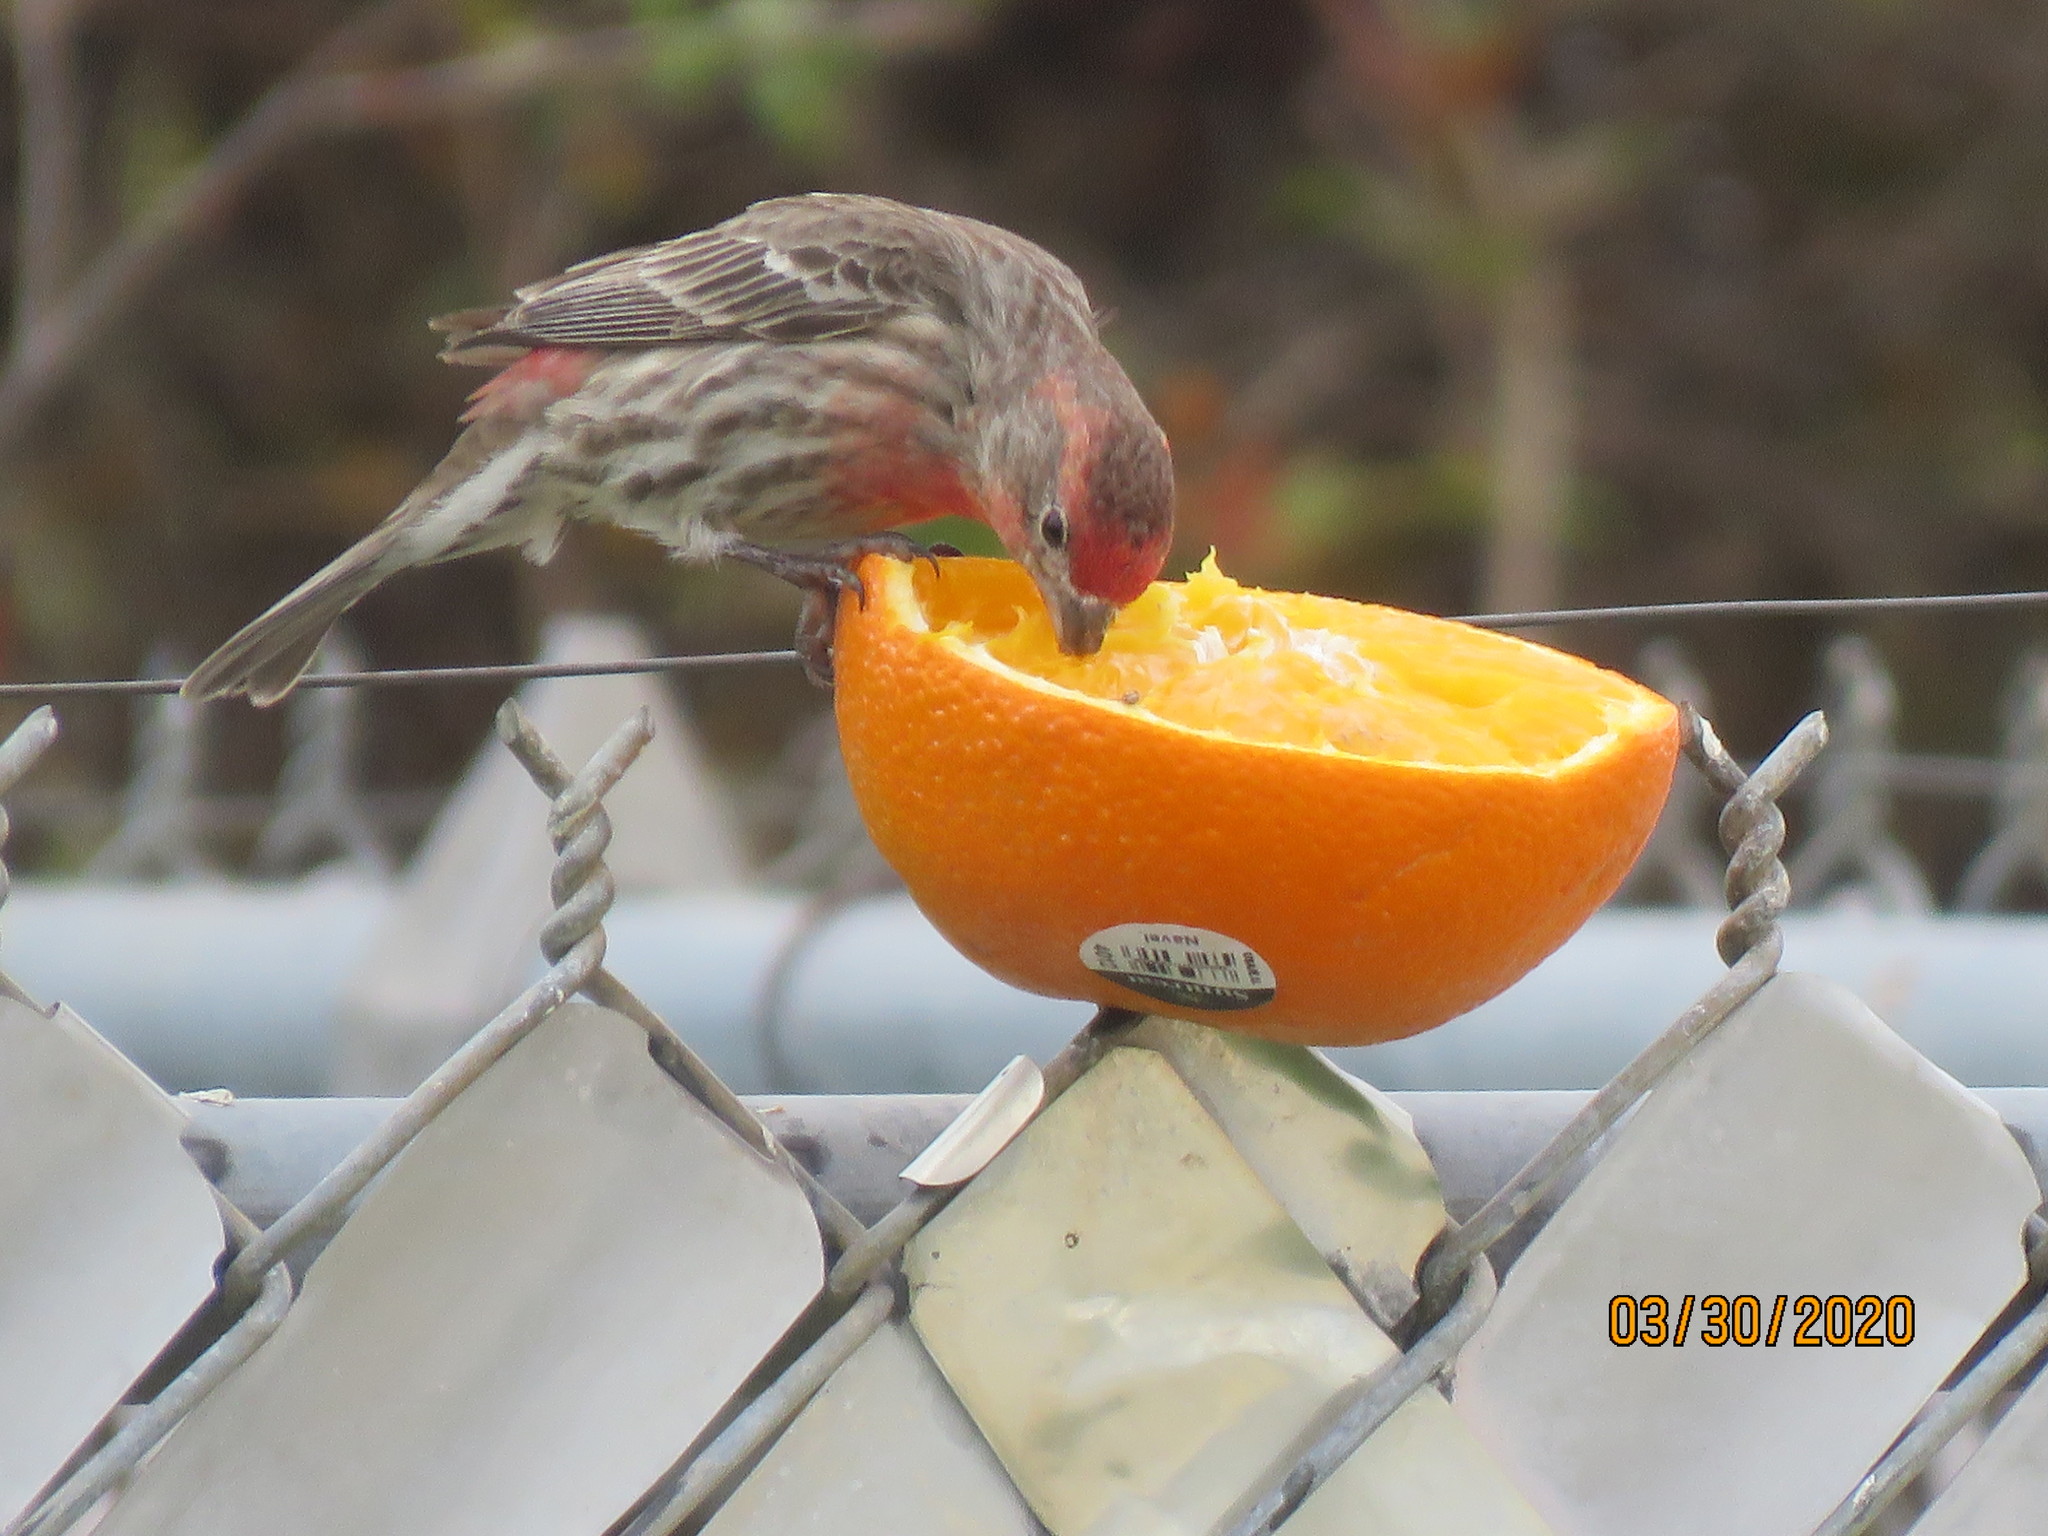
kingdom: Animalia
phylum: Chordata
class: Aves
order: Passeriformes
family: Fringillidae
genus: Haemorhous
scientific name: Haemorhous mexicanus
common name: House finch
